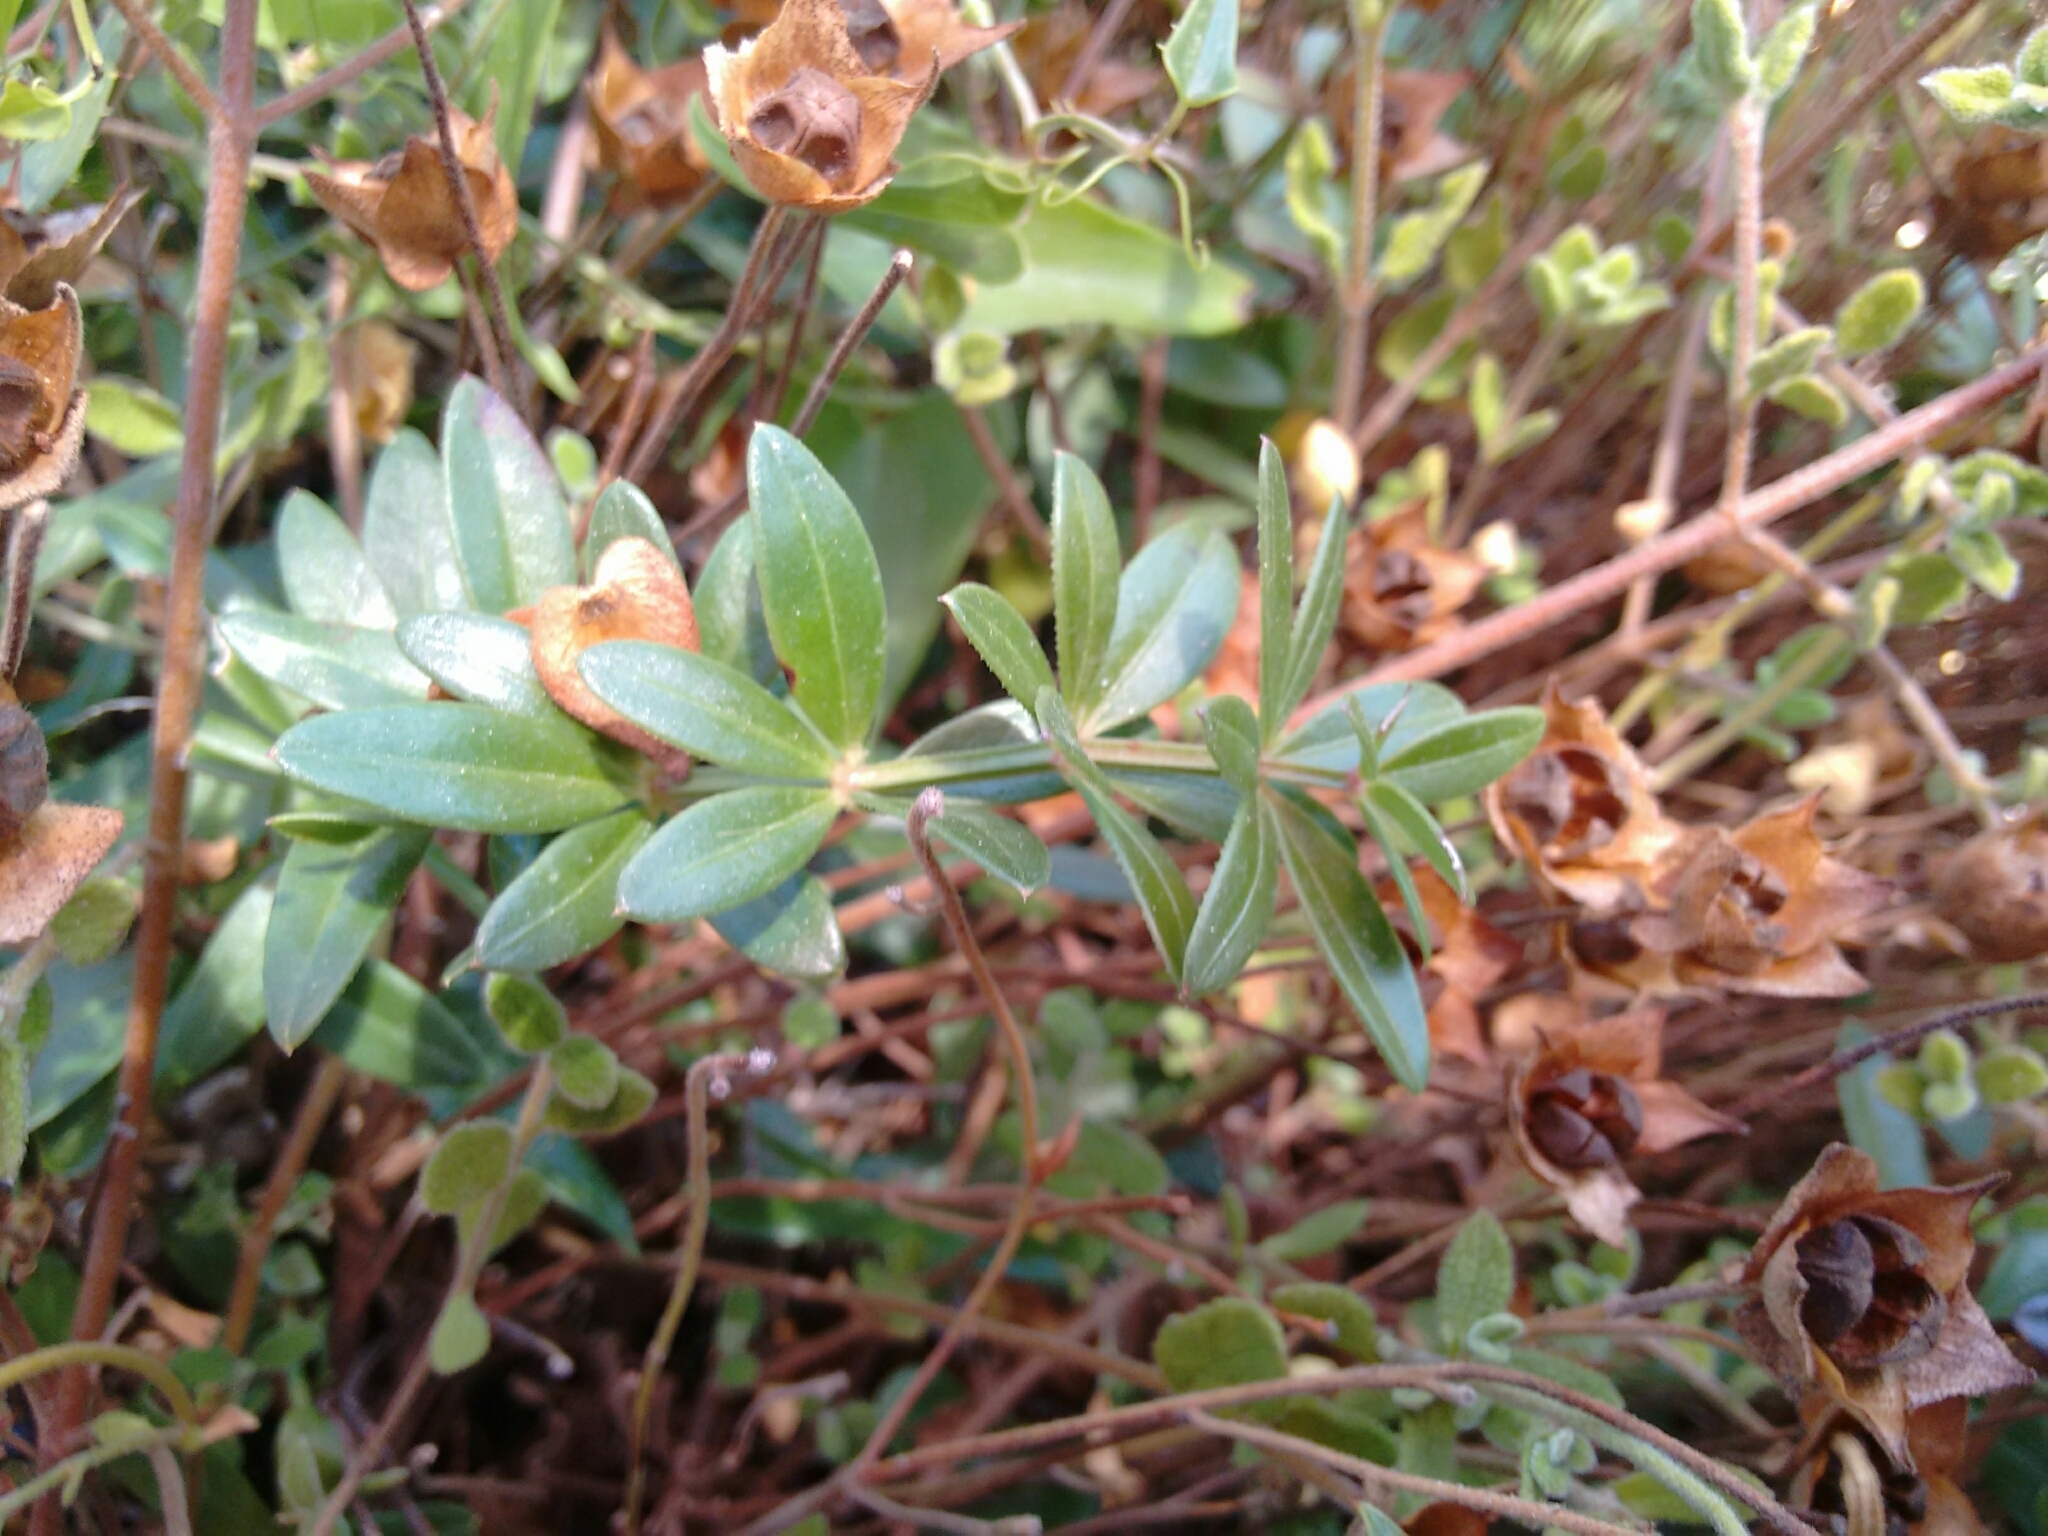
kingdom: Plantae
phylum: Tracheophyta
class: Magnoliopsida
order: Gentianales
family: Rubiaceae
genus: Rubia
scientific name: Rubia peregrina
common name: Wild madder
